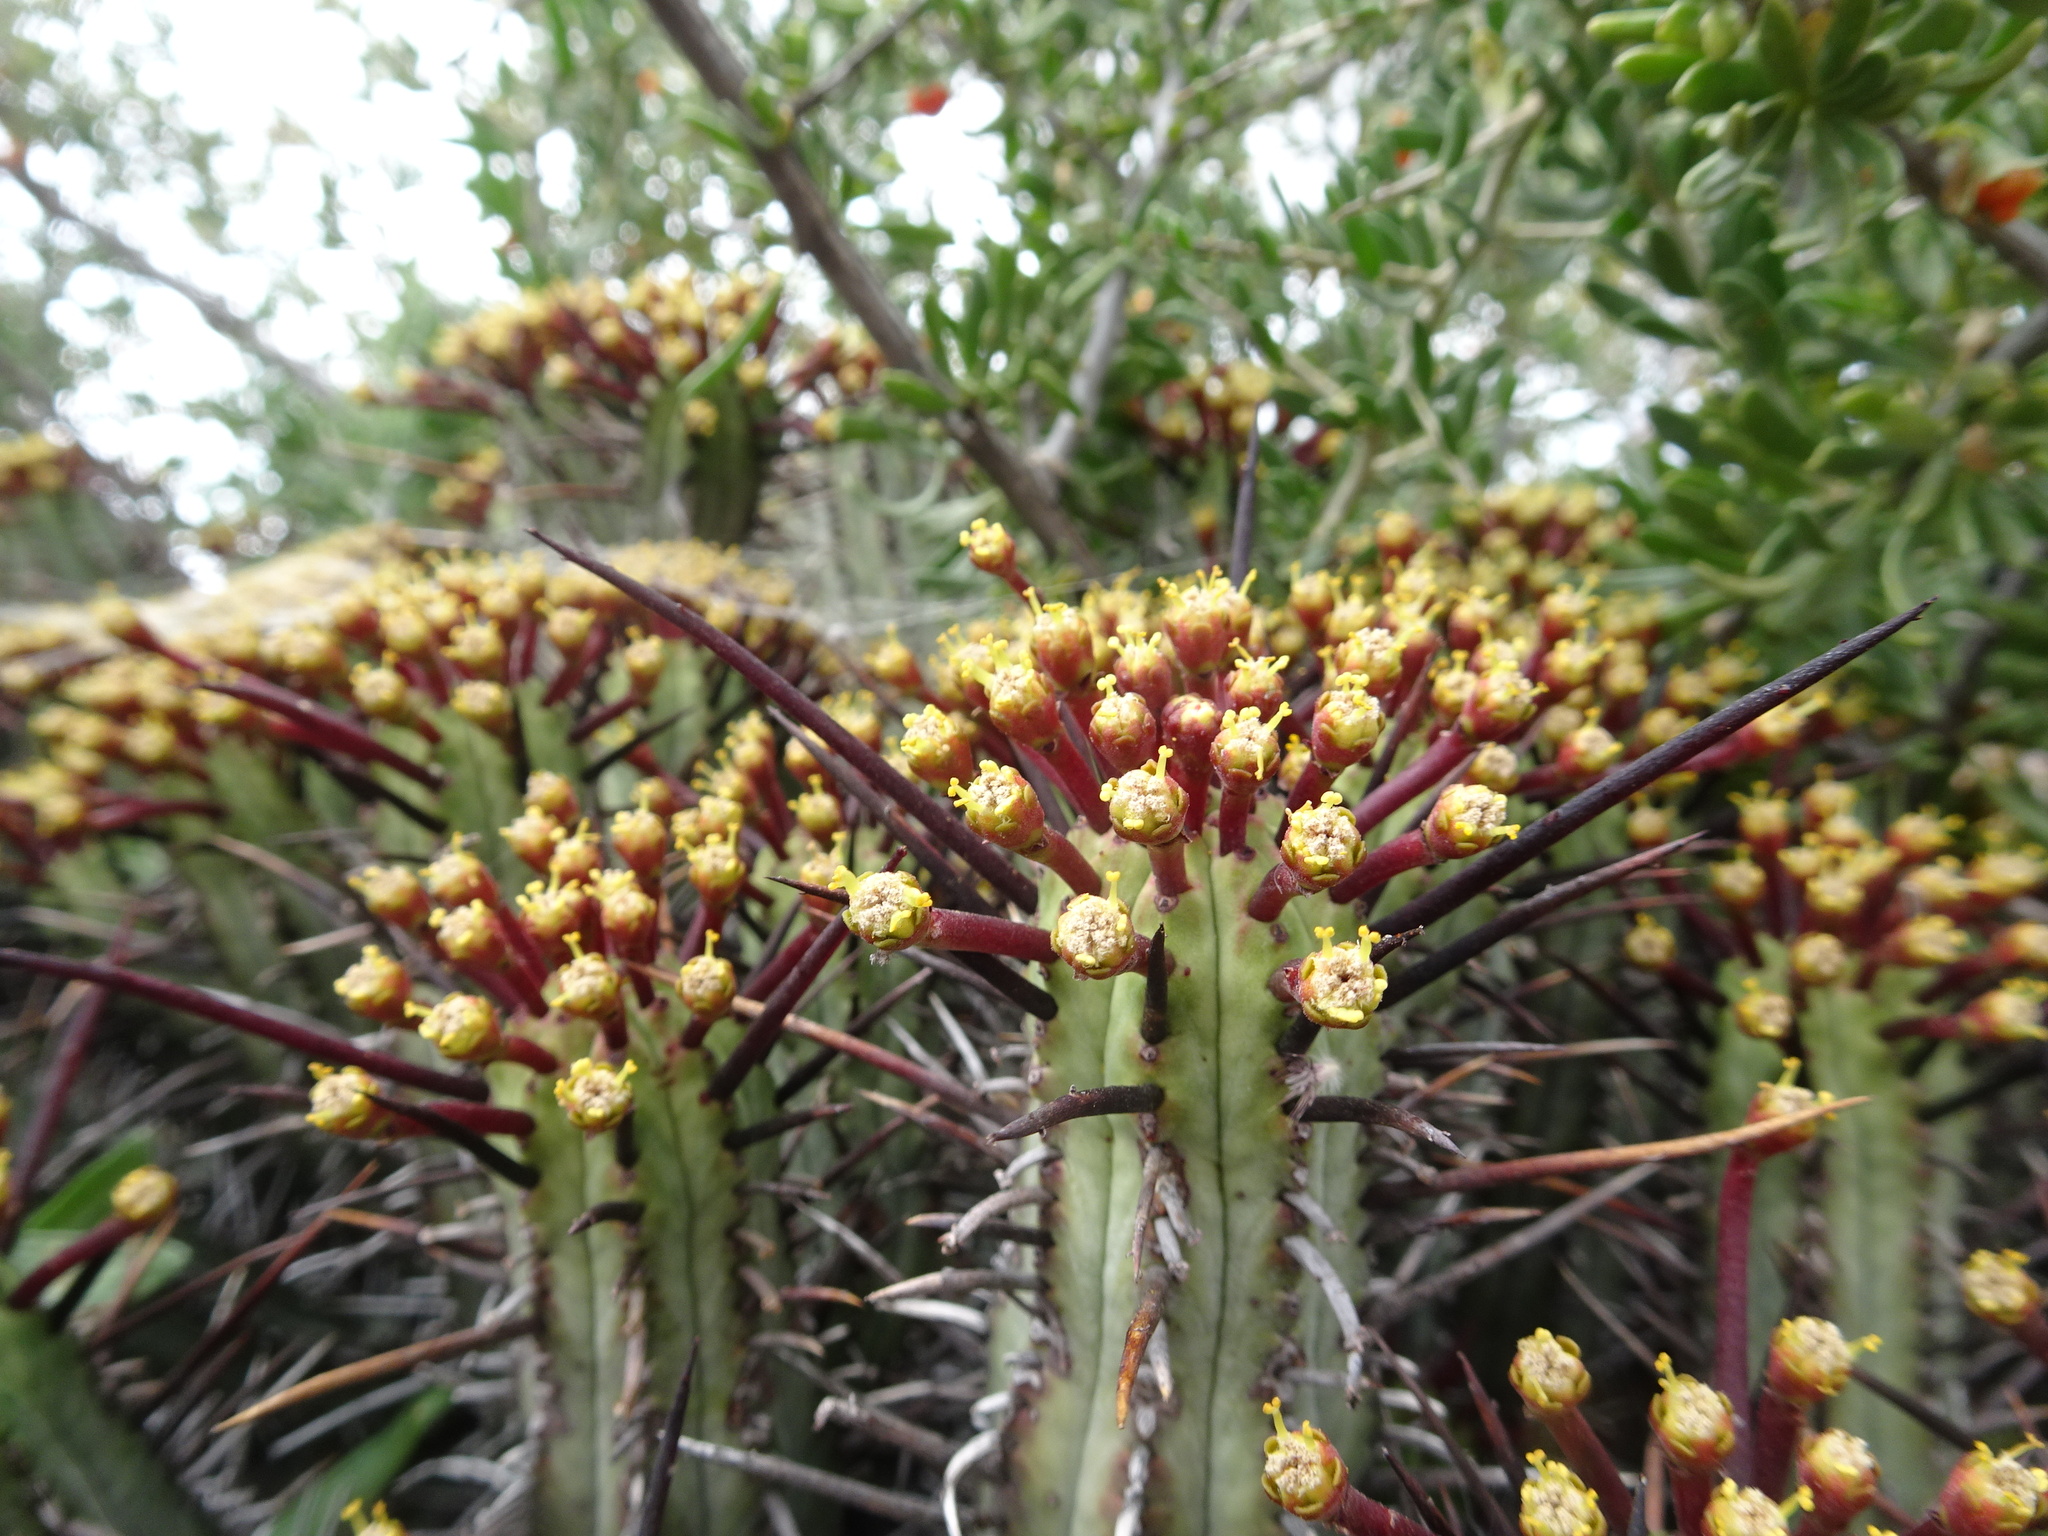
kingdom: Plantae
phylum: Tracheophyta
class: Magnoliopsida
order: Malpighiales
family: Euphorbiaceae
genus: Euphorbia
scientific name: Euphorbia heptagona
